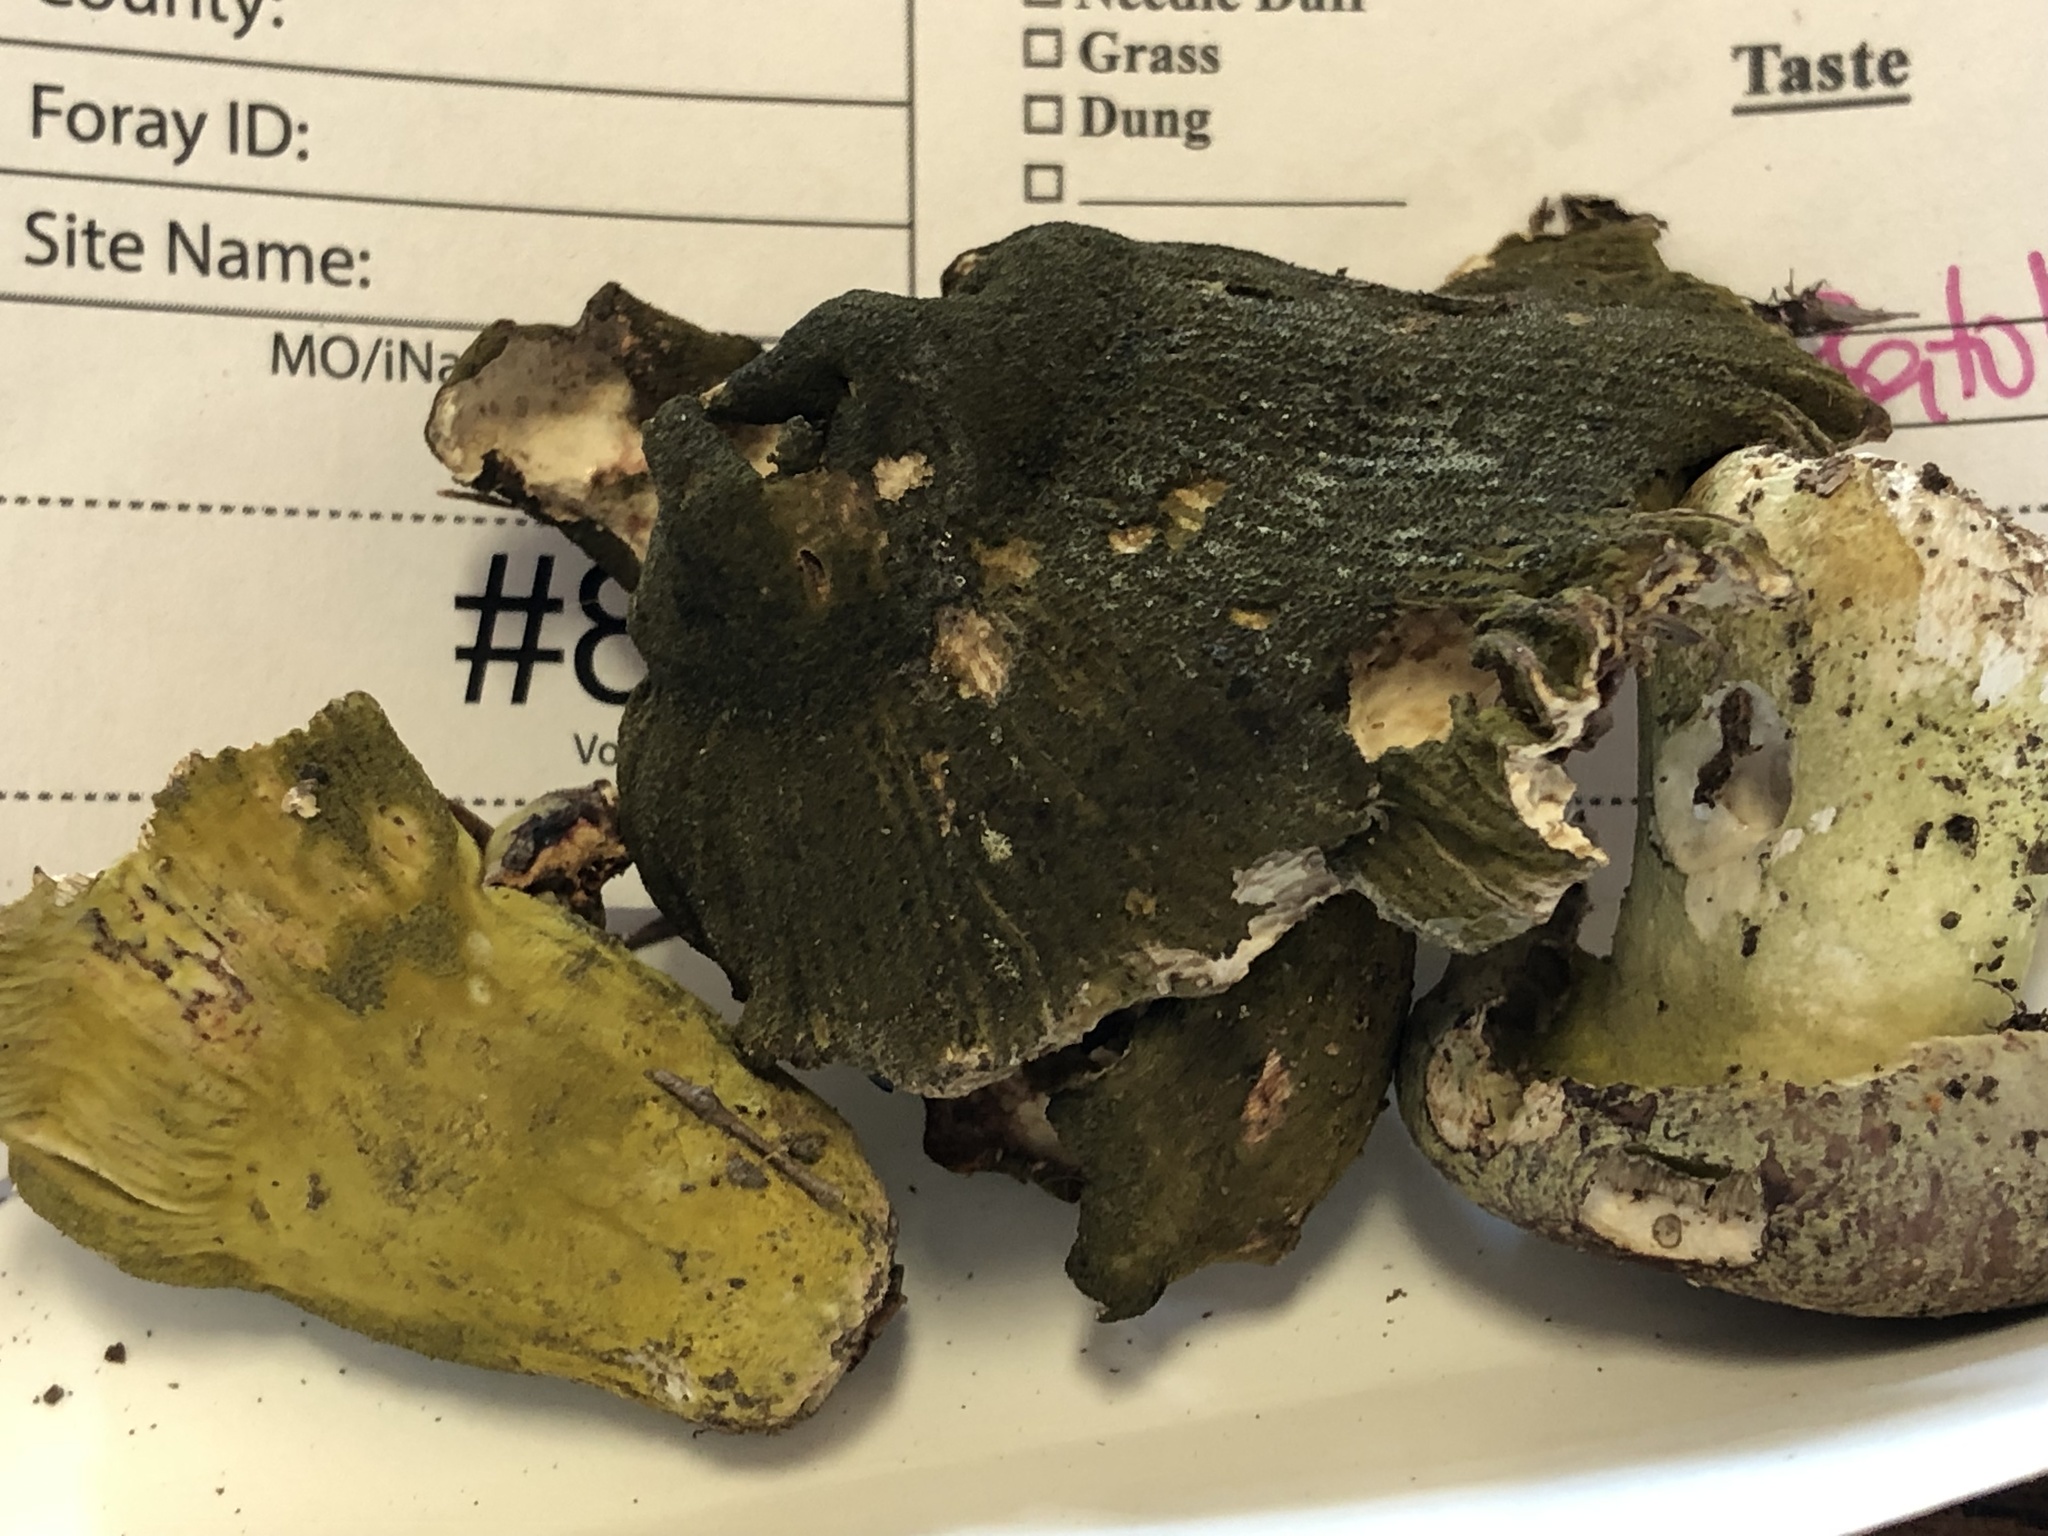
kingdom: Fungi
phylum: Ascomycota
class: Sordariomycetes
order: Hypocreales
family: Hypocreaceae
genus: Hypomyces
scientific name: Hypomyces luteovirens
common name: Yellow-green russula mold
